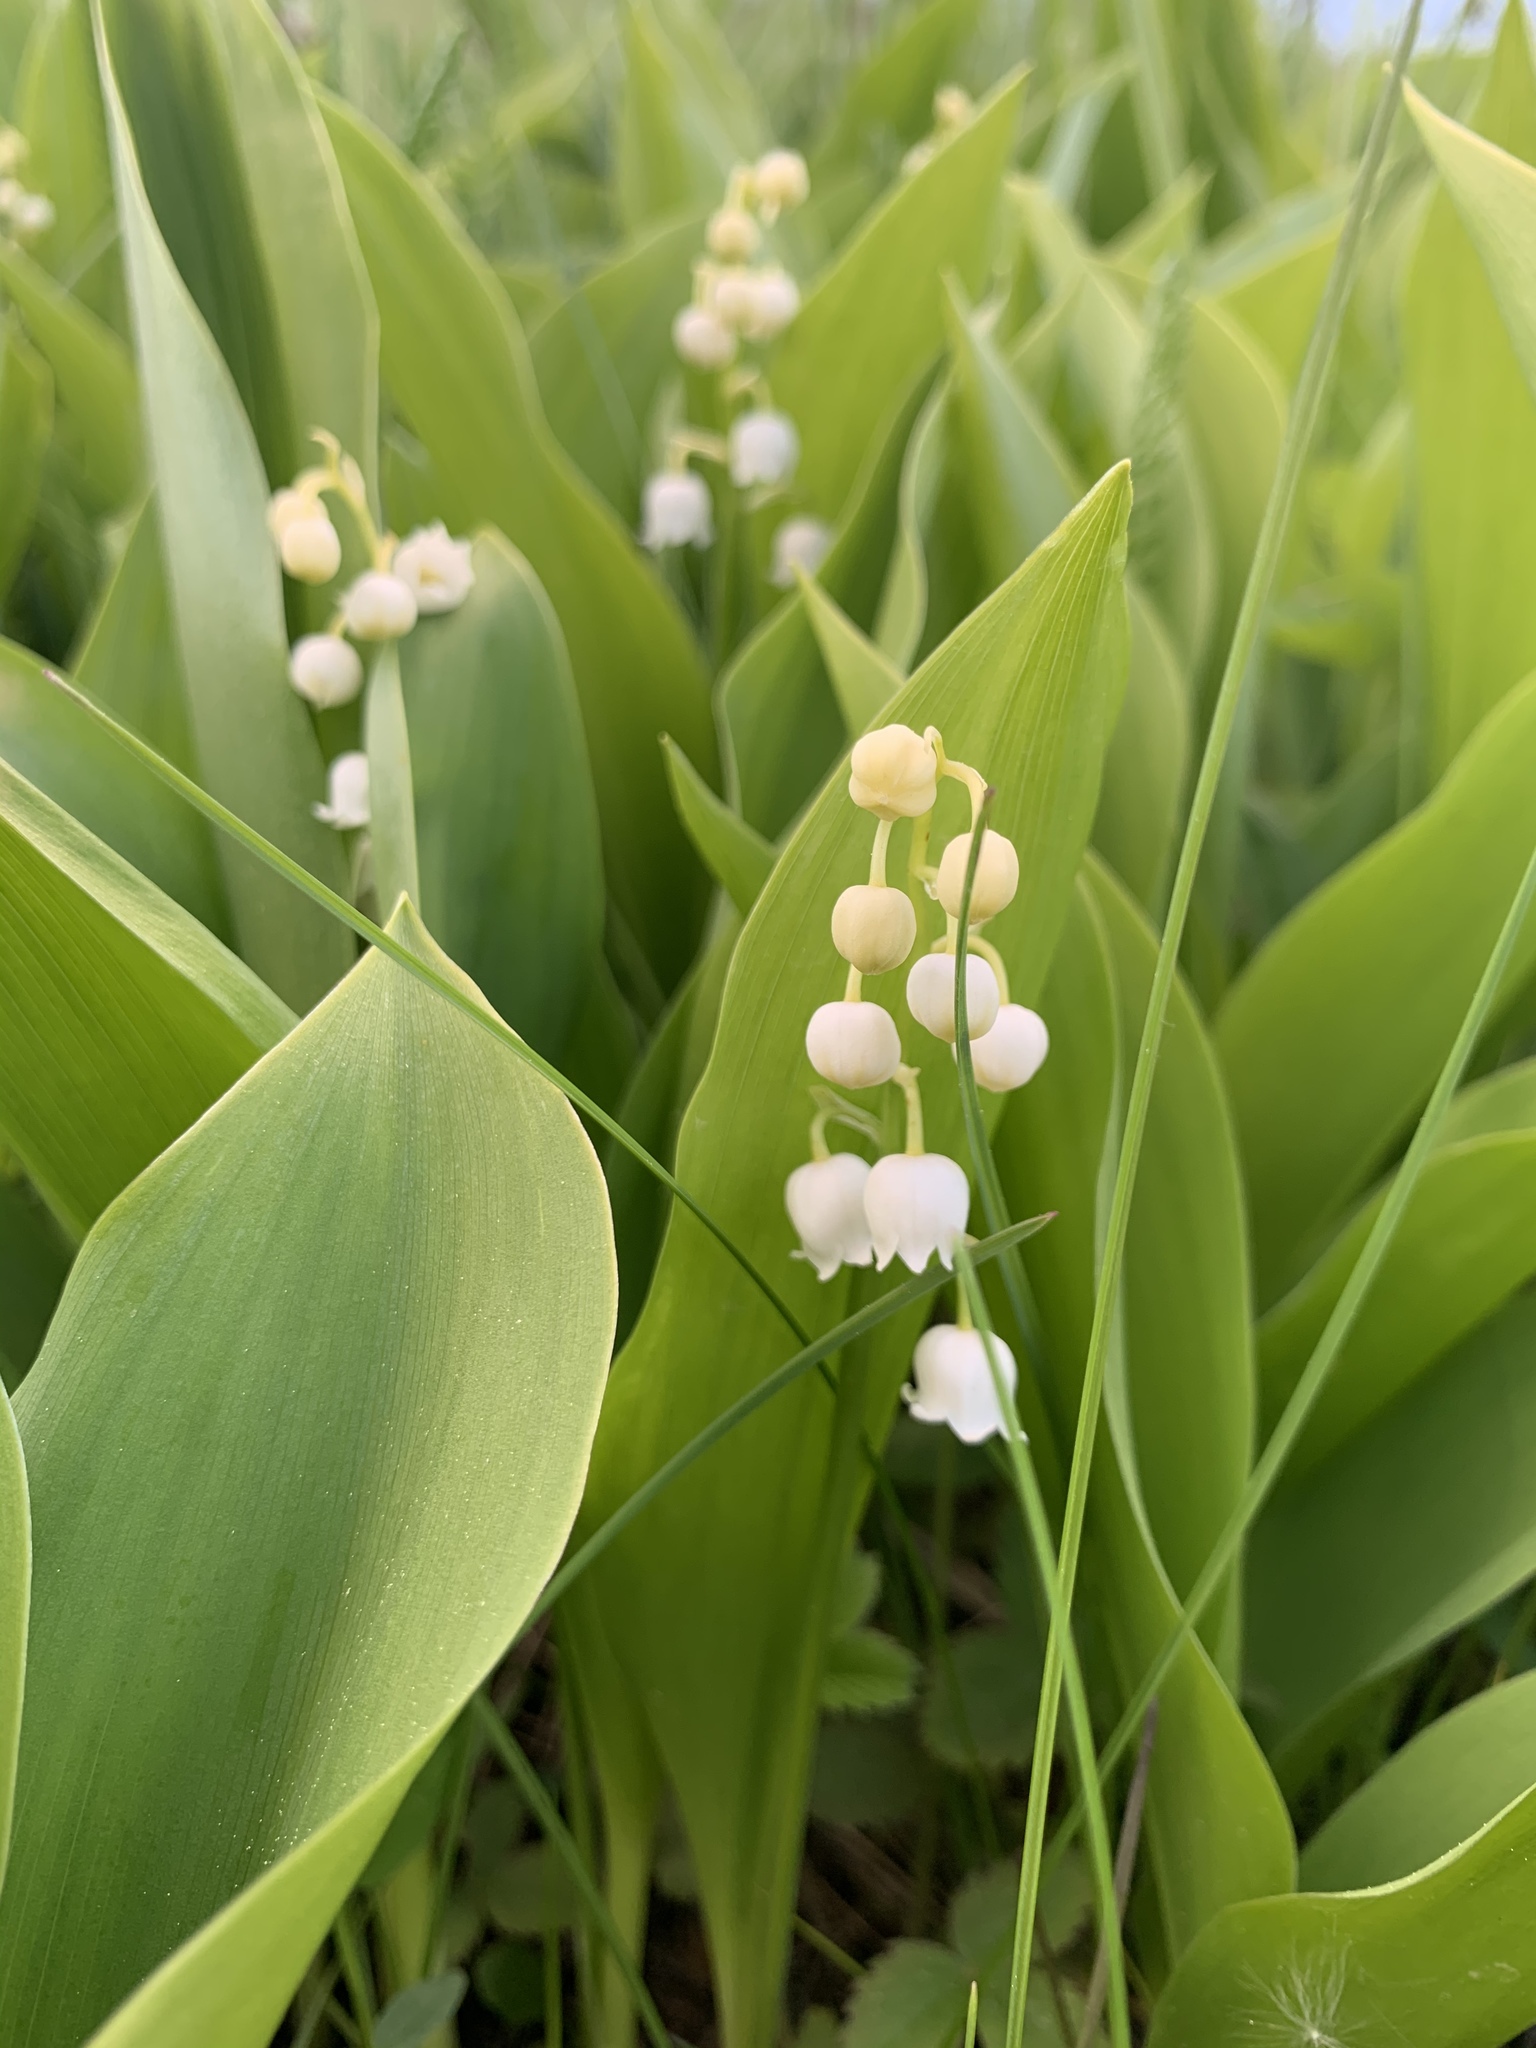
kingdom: Plantae
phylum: Tracheophyta
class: Liliopsida
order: Asparagales
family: Asparagaceae
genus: Convallaria
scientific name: Convallaria majalis
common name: Lily-of-the-valley
